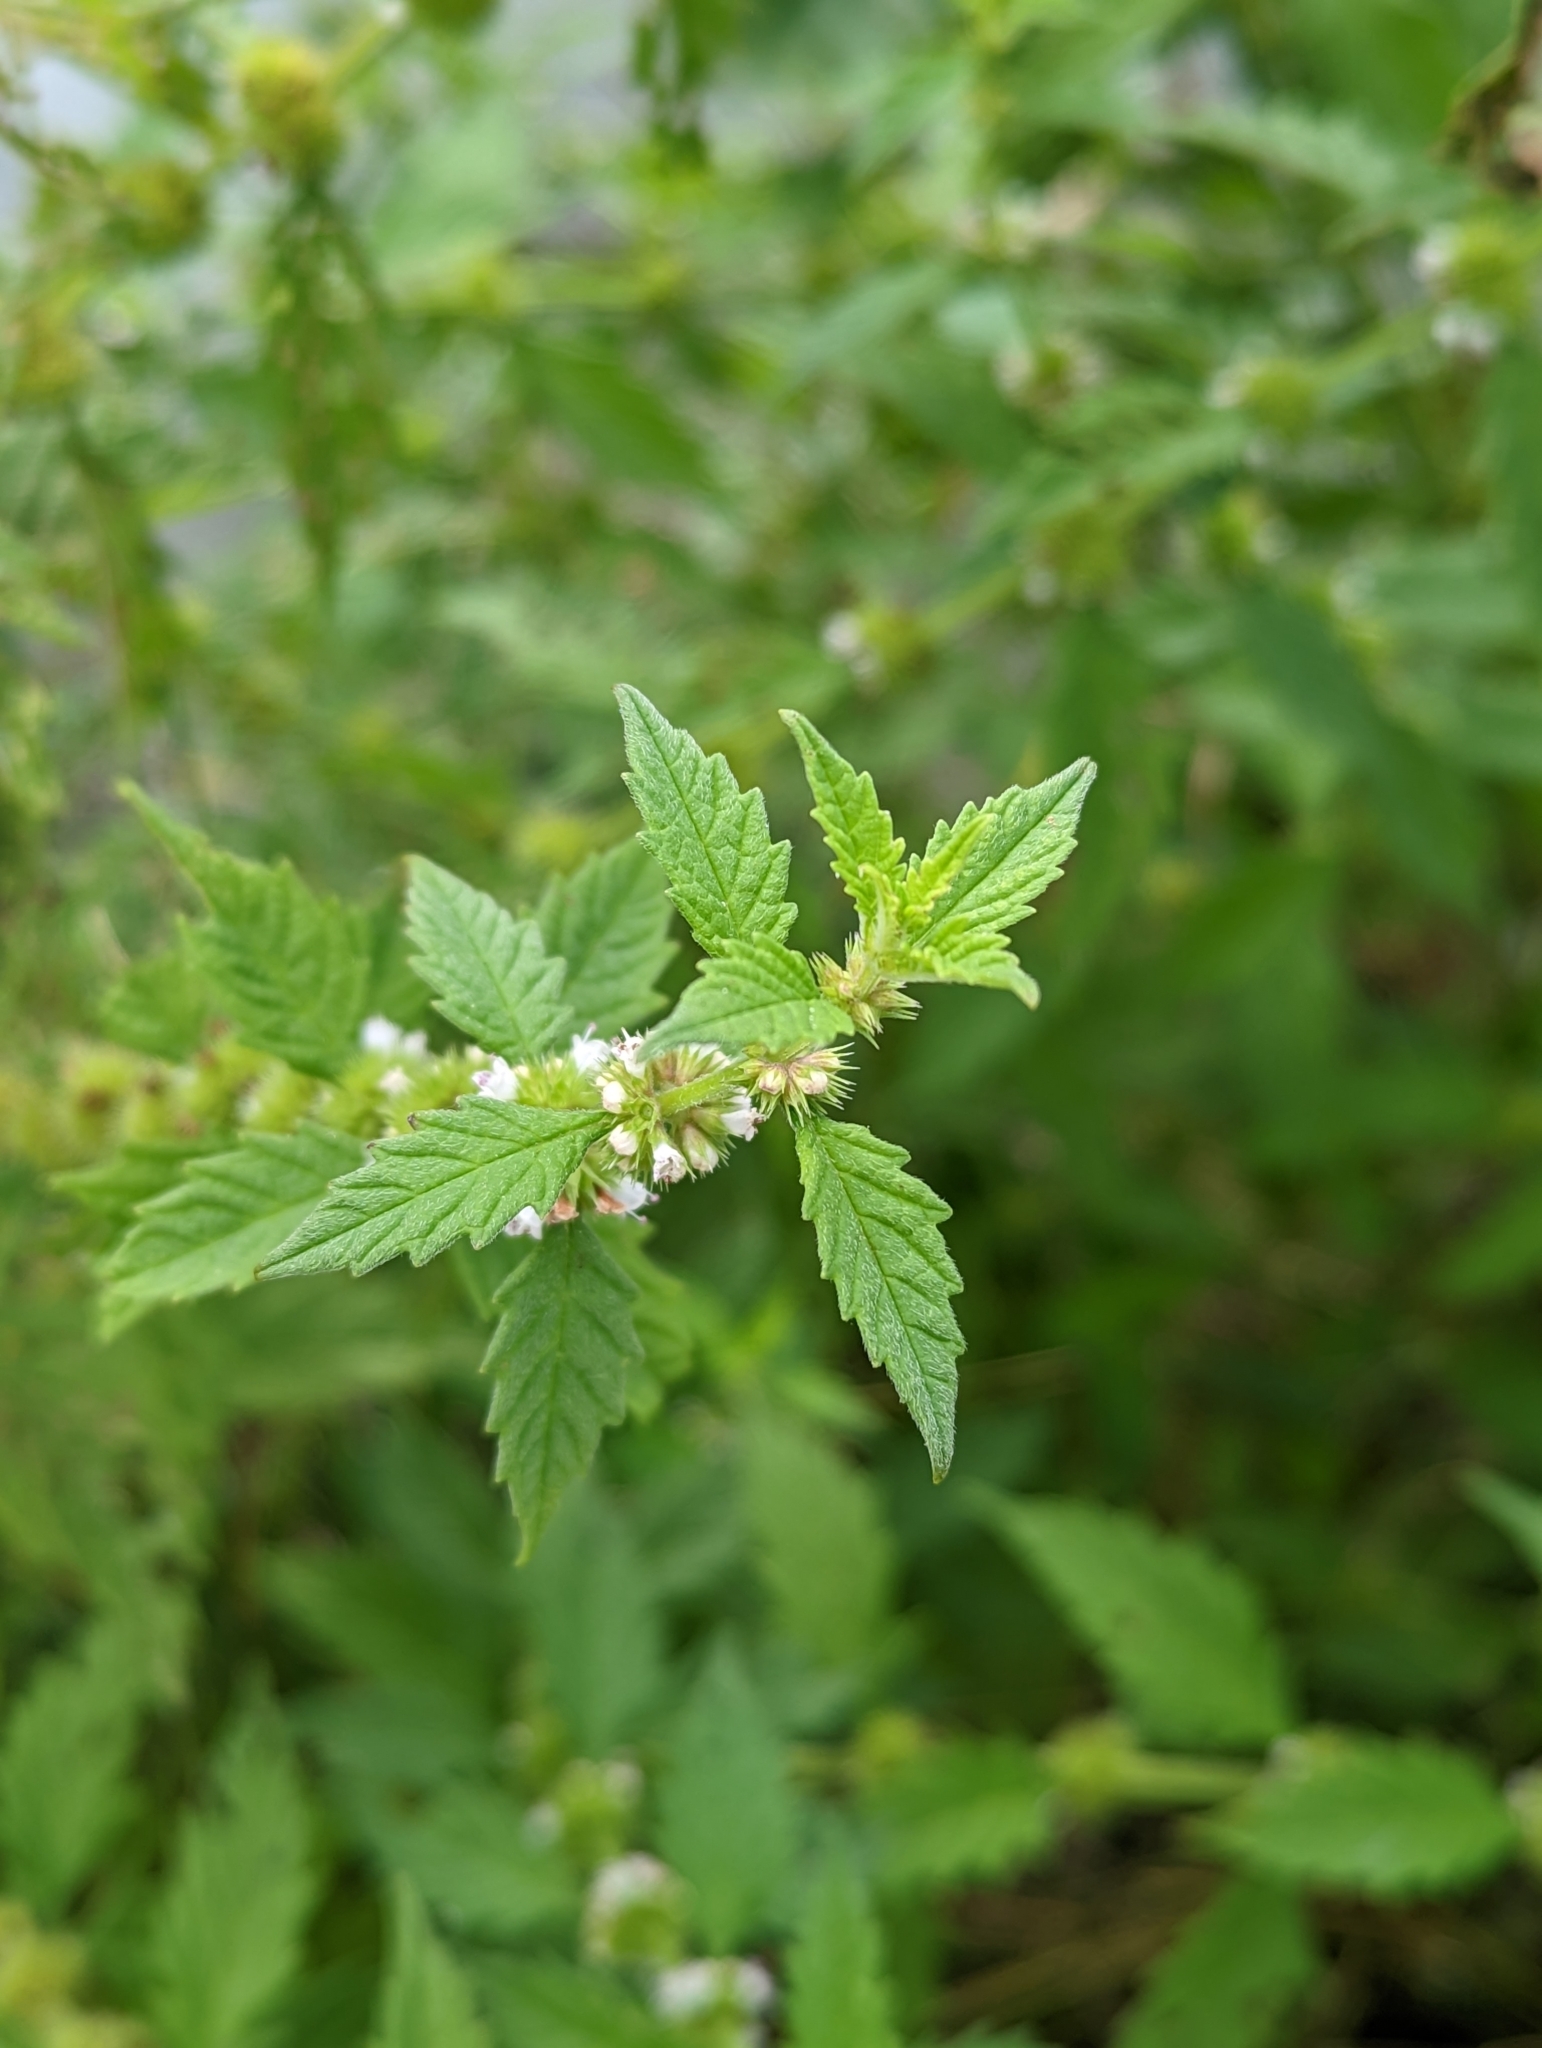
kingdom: Plantae
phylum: Tracheophyta
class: Magnoliopsida
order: Lamiales
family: Lamiaceae
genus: Lycopus
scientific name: Lycopus europaeus
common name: European bugleweed
